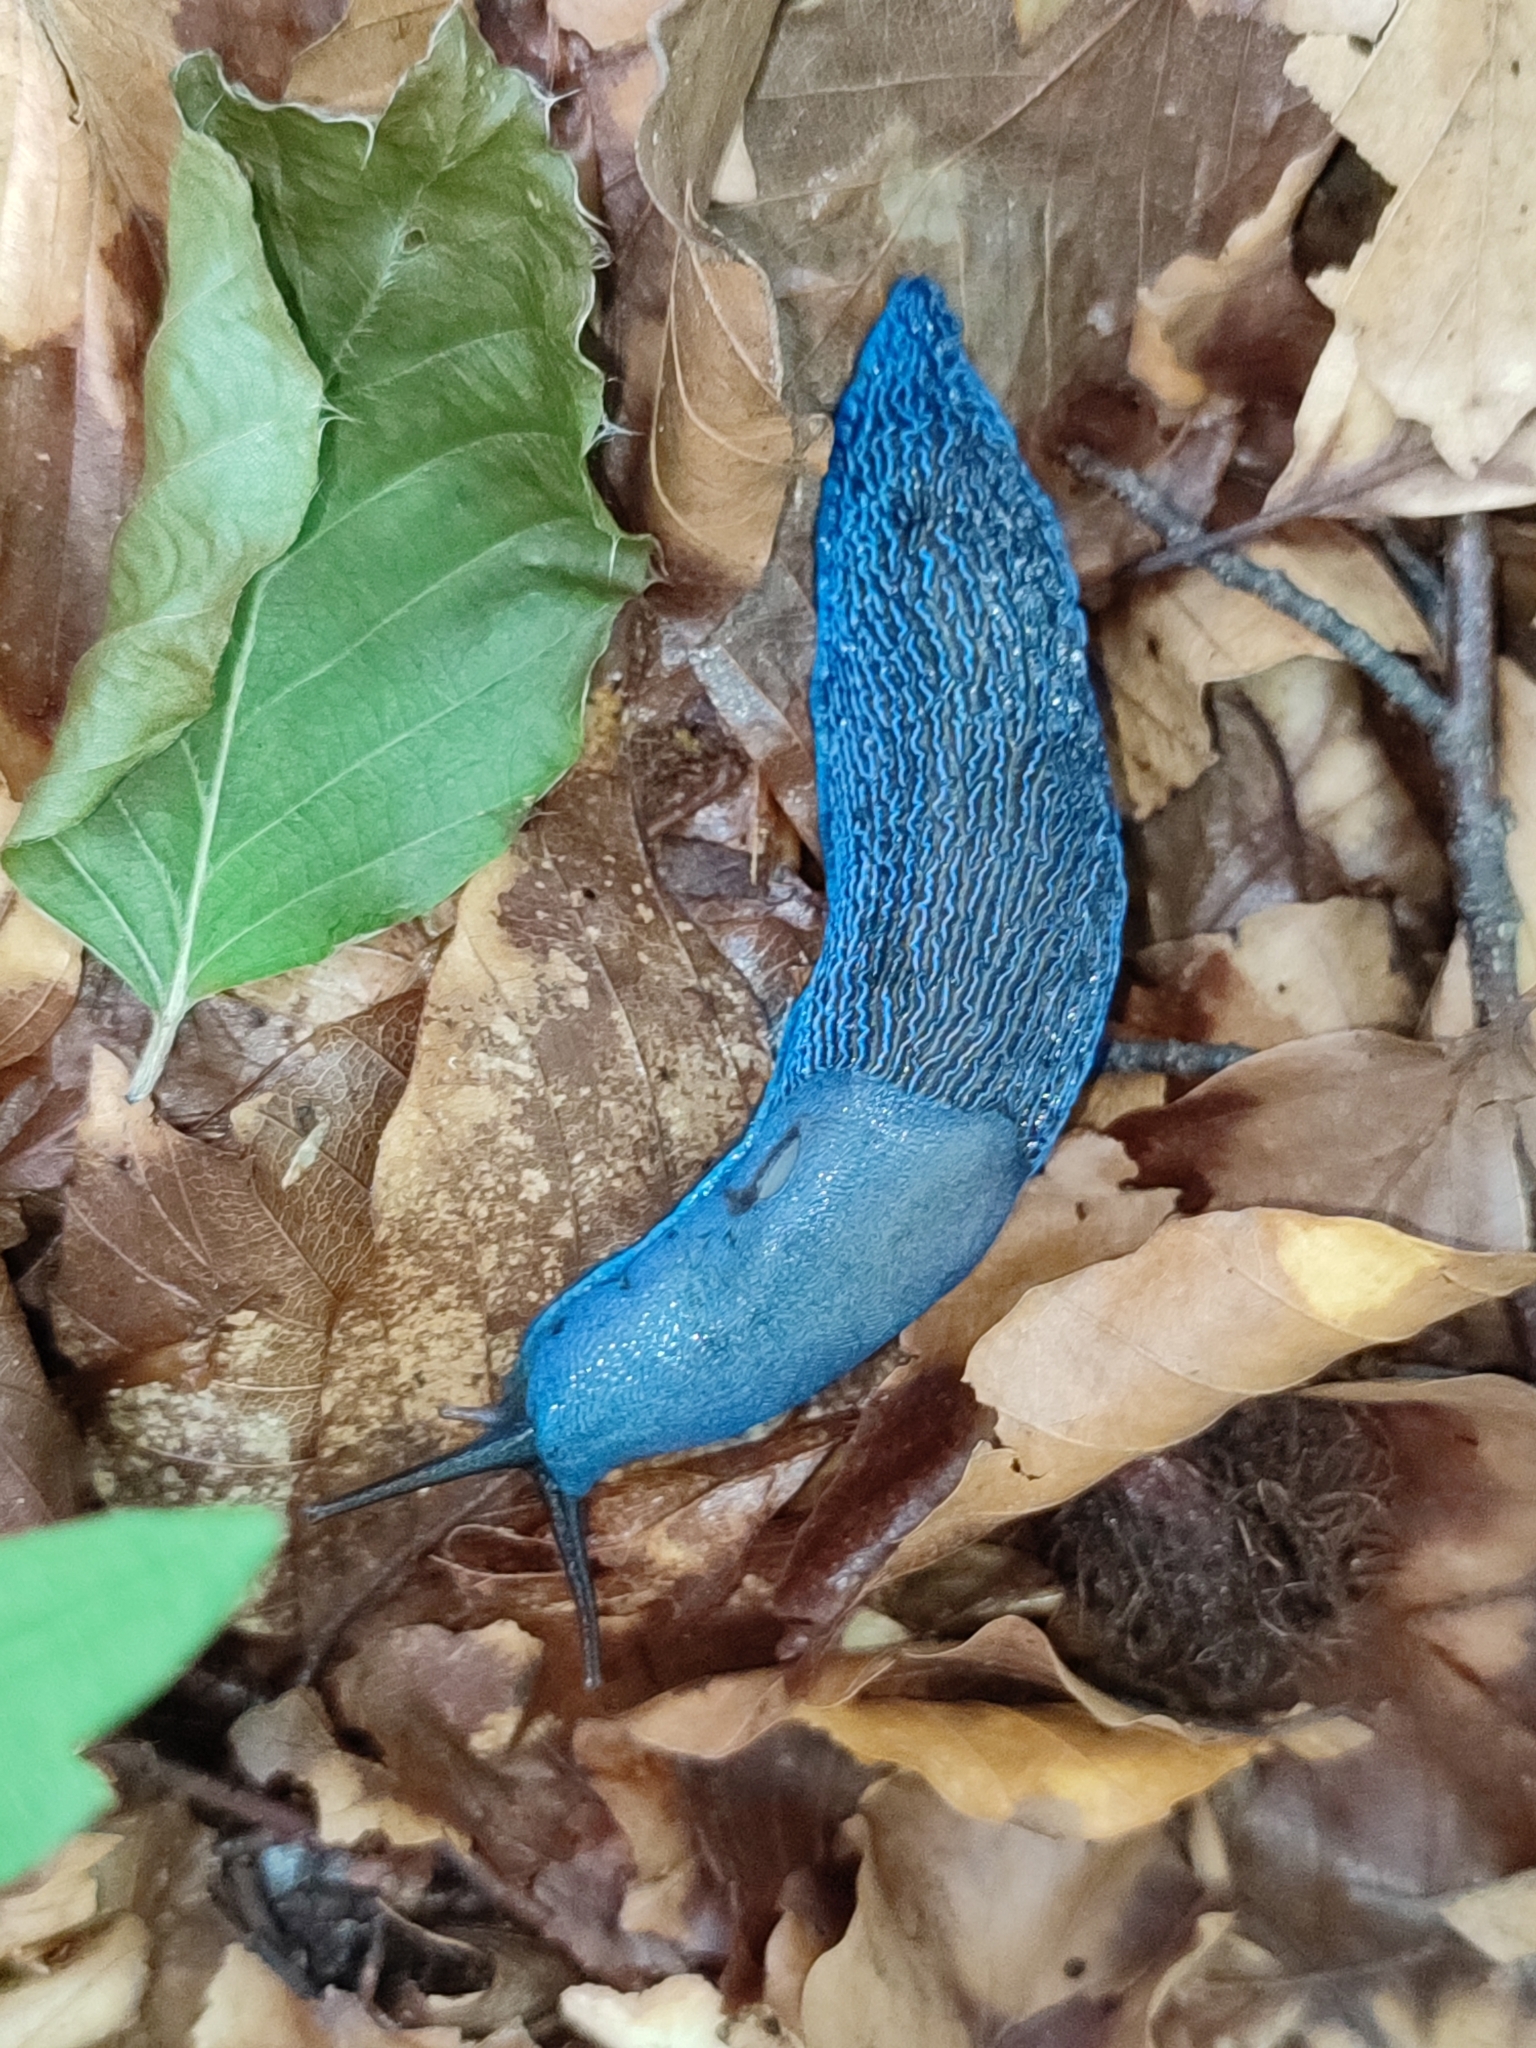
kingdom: Animalia
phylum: Mollusca
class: Gastropoda
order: Stylommatophora
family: Limacidae
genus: Bielzia
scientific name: Bielzia coerulans
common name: Carpathian blue slug
